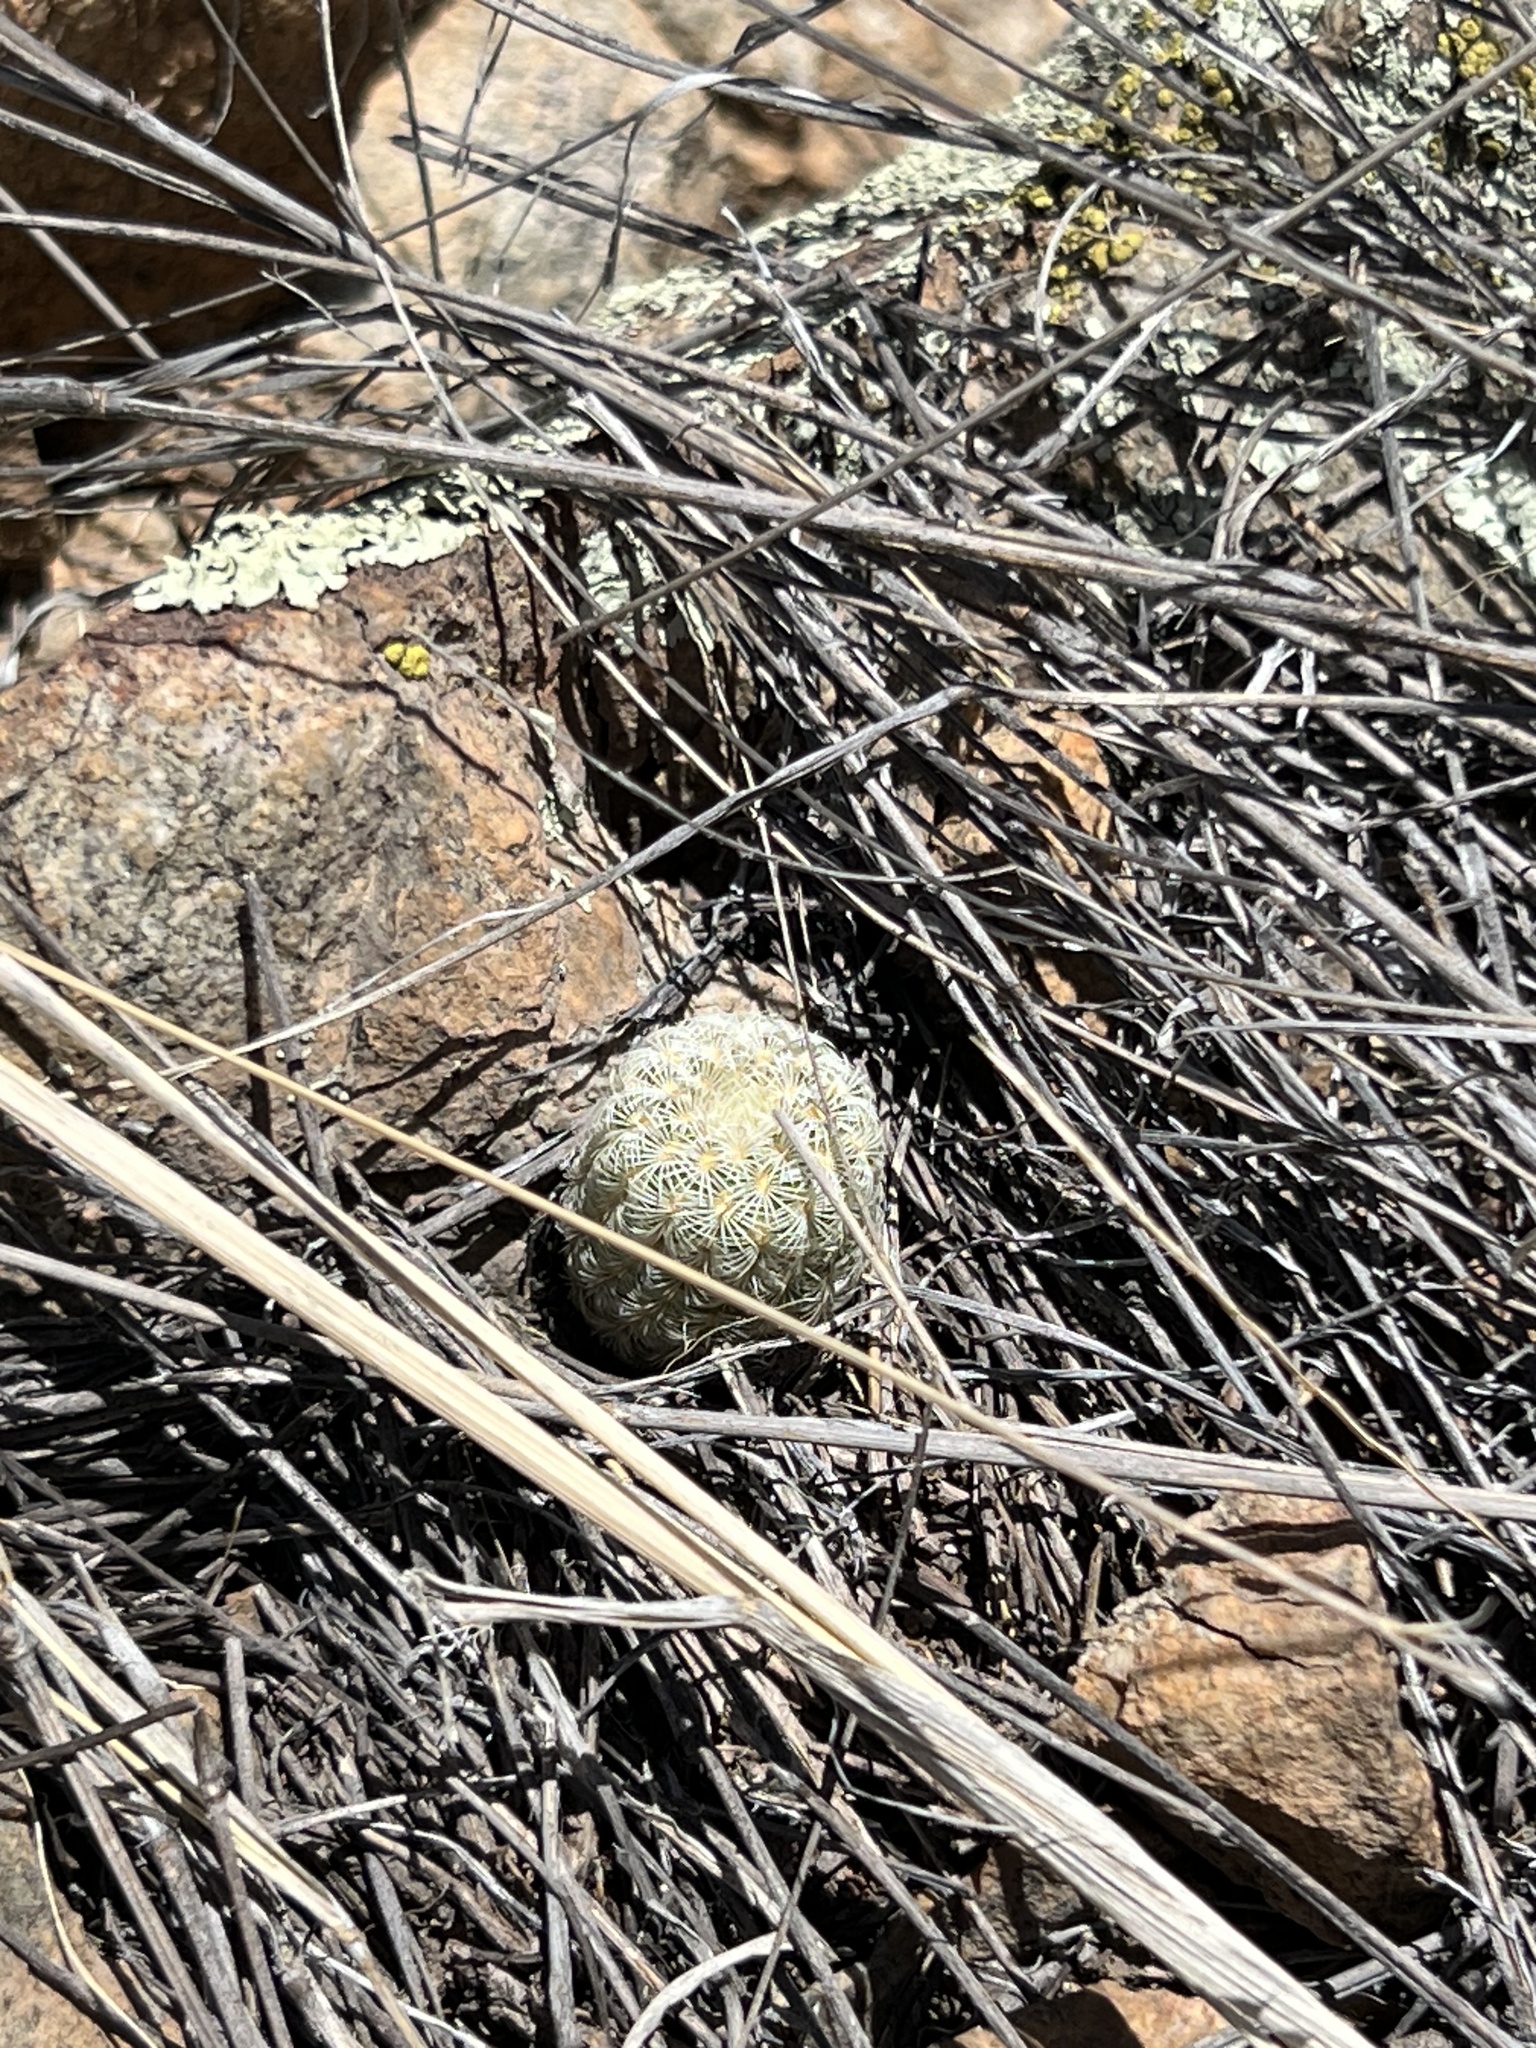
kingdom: Plantae
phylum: Tracheophyta
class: Magnoliopsida
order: Caryophyllales
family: Cactaceae
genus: Echinocereus
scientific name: Echinocereus rigidissimus
